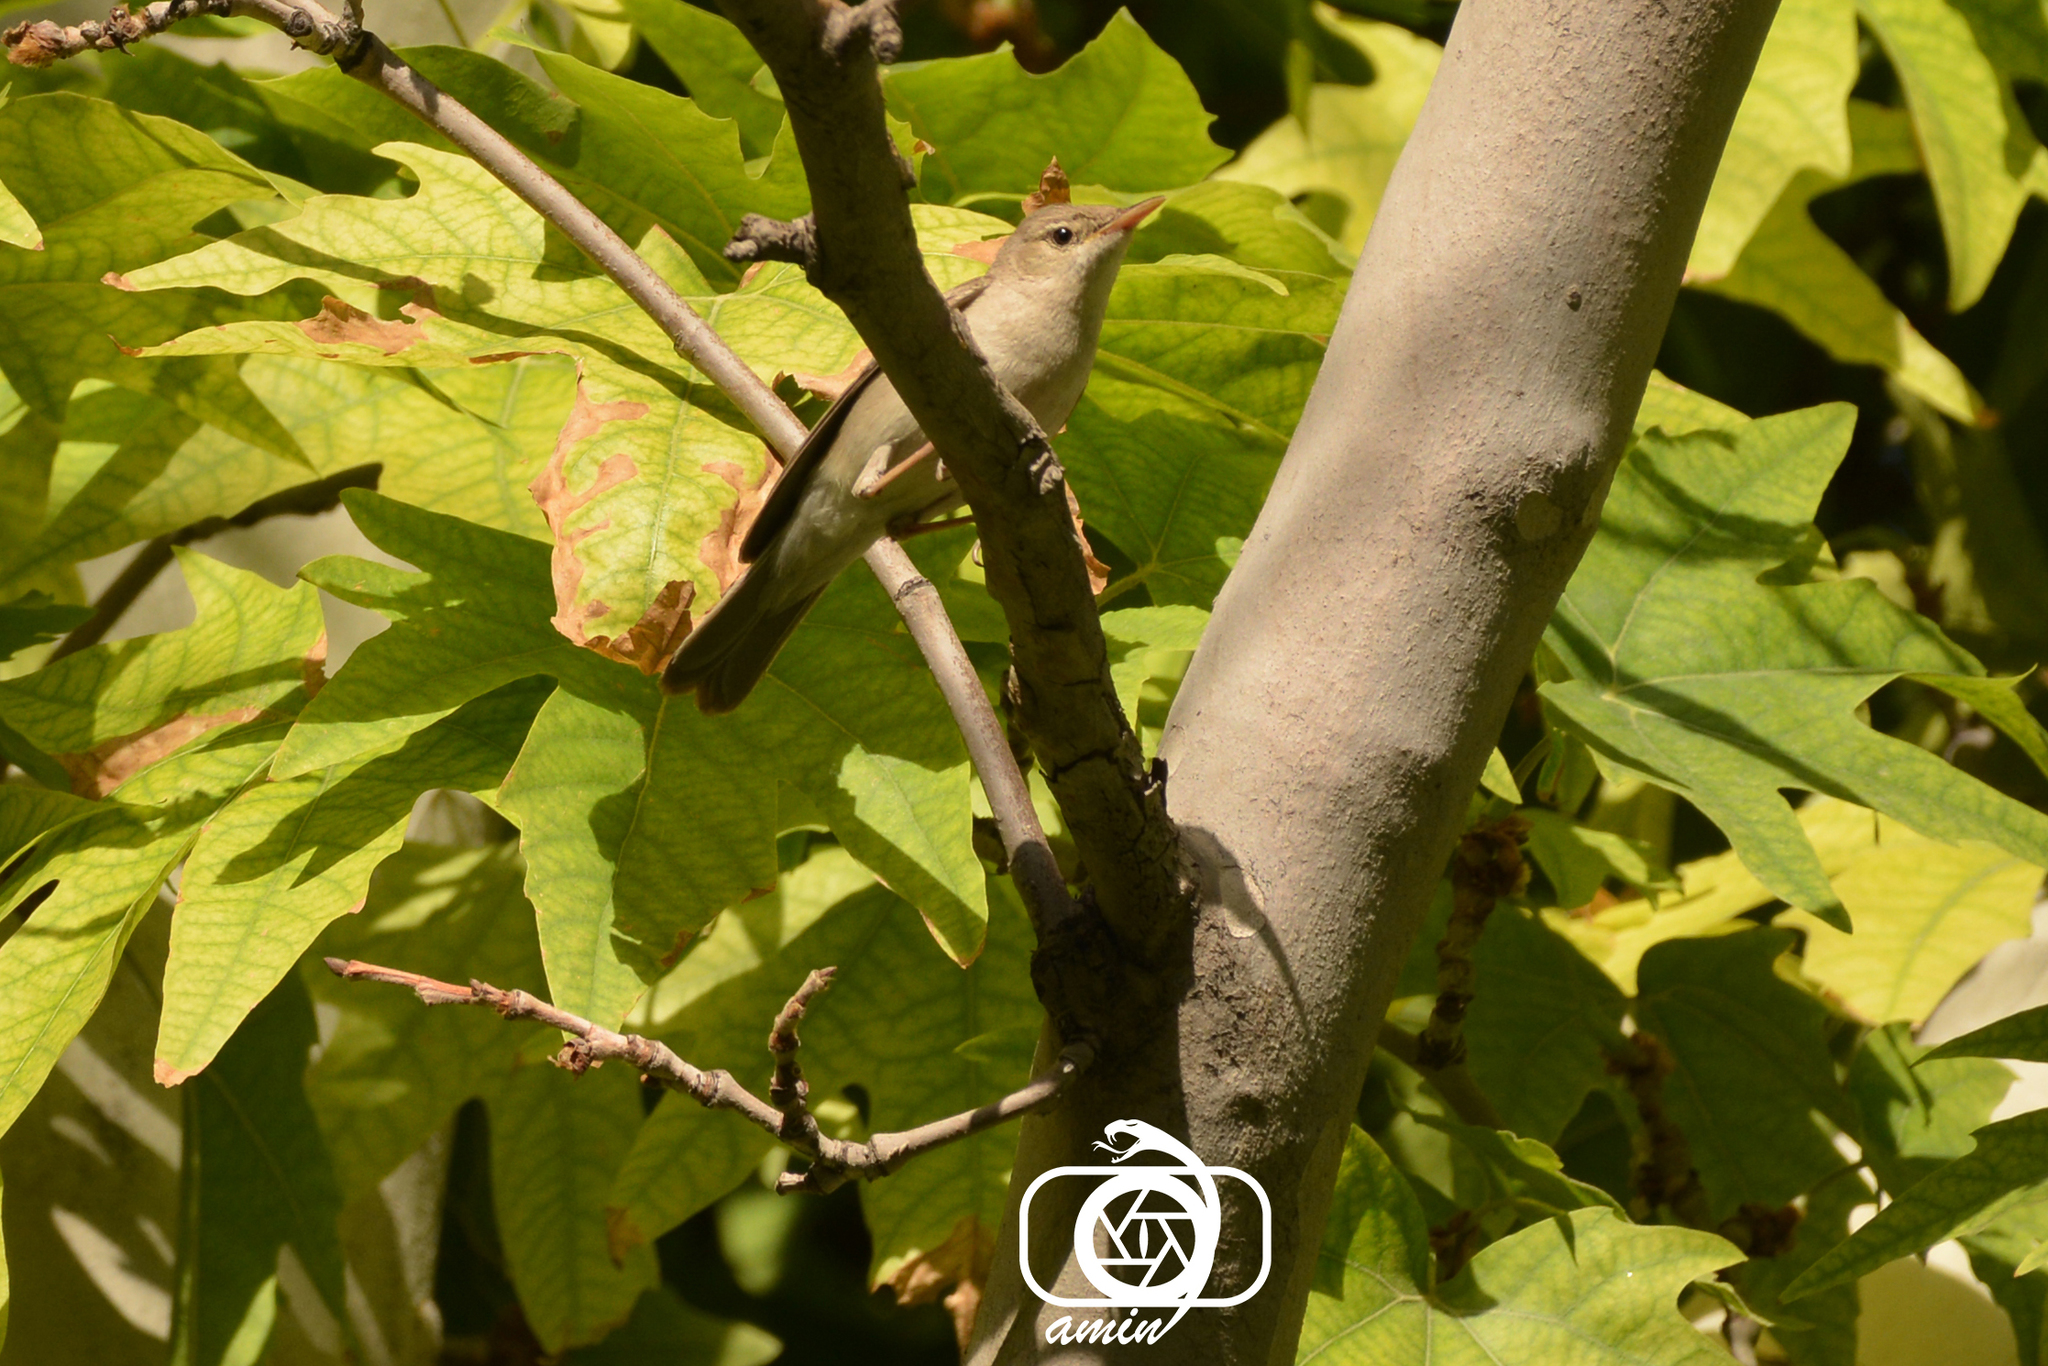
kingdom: Animalia
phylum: Chordata
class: Aves
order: Passeriformes
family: Acrocephalidae
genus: Iduna
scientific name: Iduna pallida
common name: Eastern olivaceous warbler
